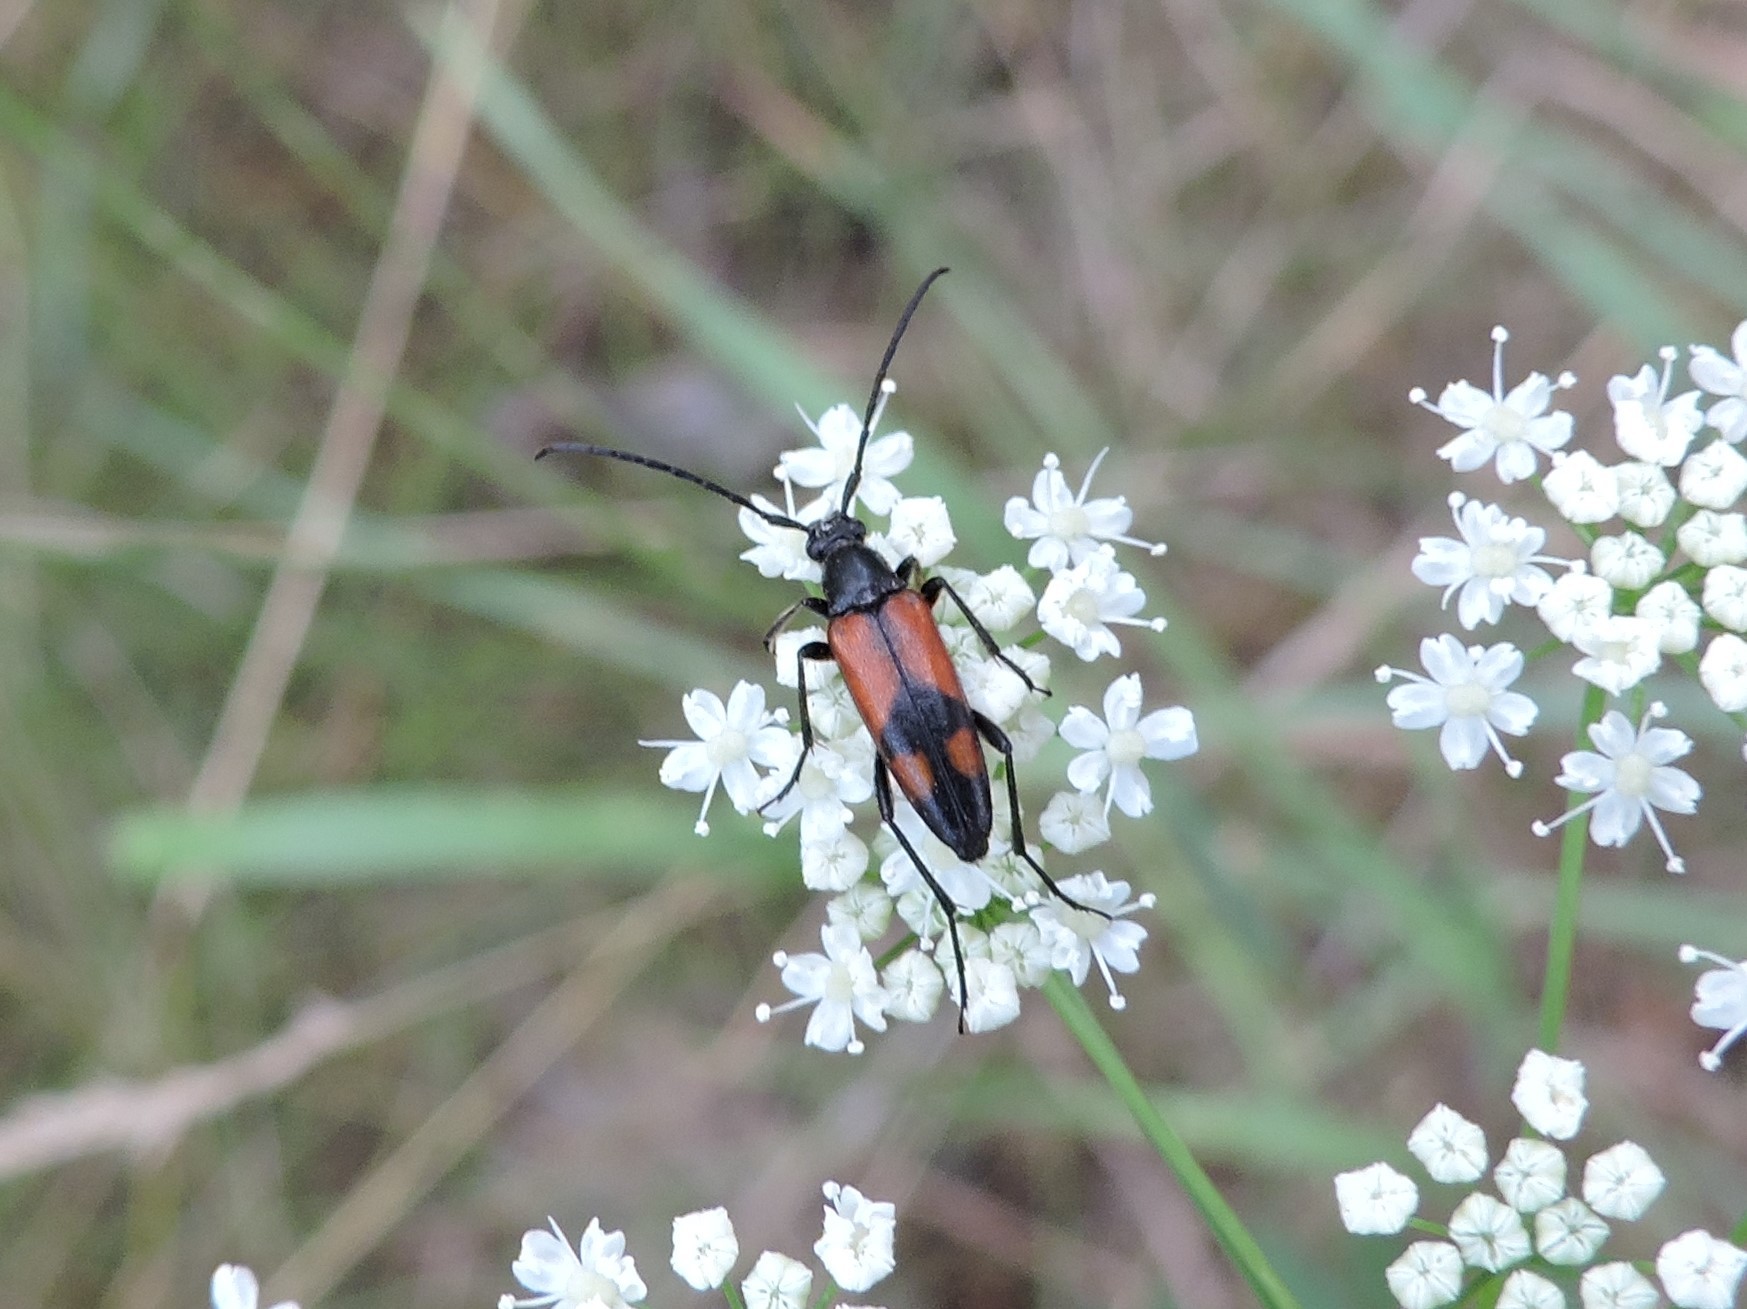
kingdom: Animalia
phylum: Arthropoda
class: Insecta
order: Coleoptera
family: Cerambycidae
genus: Stenurella
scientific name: Stenurella bifasciata
